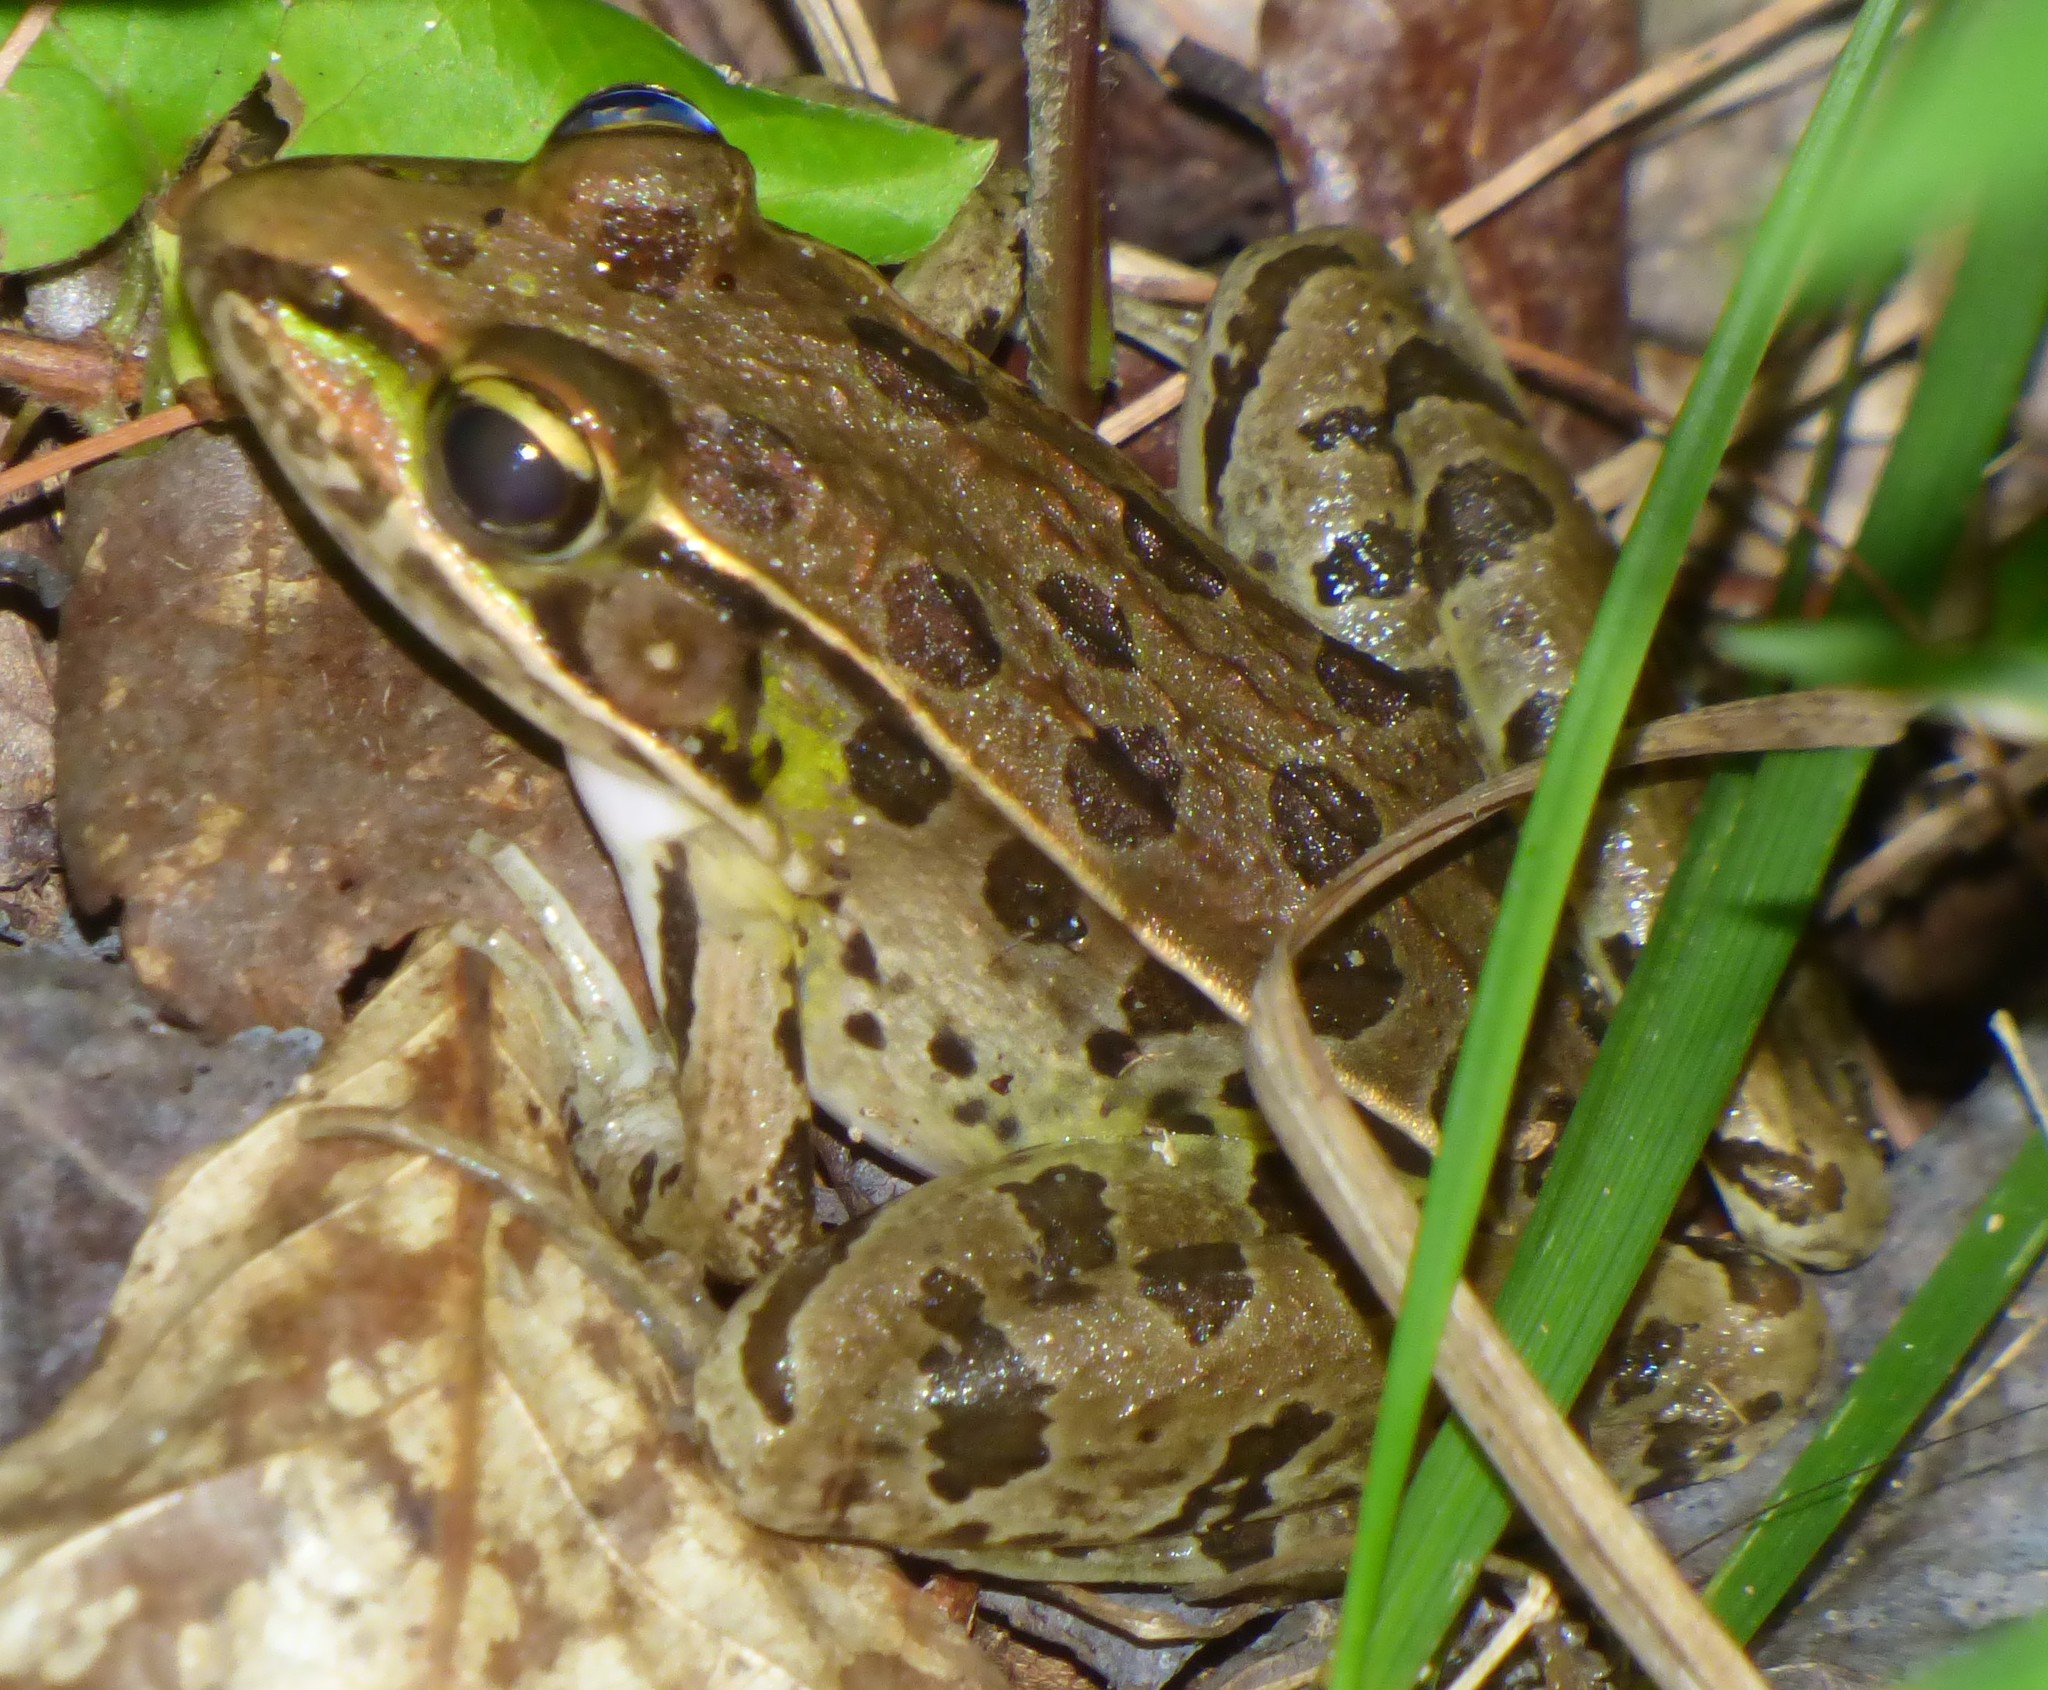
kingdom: Animalia
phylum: Chordata
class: Amphibia
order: Anura
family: Ranidae
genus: Lithobates
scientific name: Lithobates sphenocephalus
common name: Southern leopard frog
